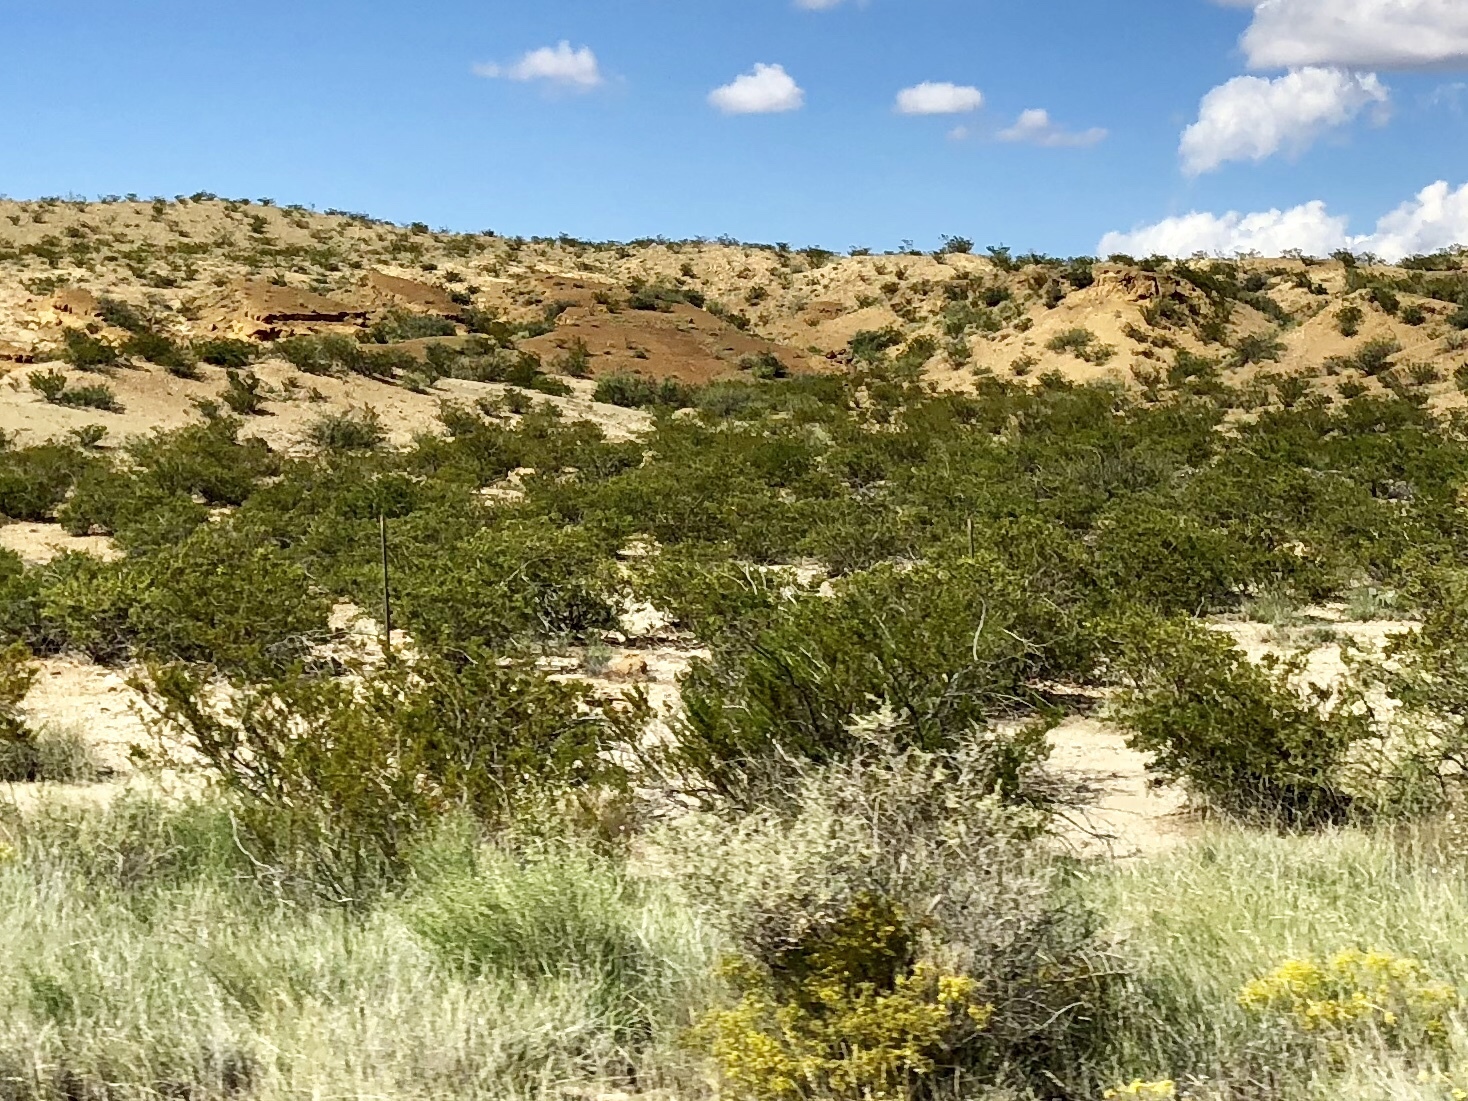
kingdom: Plantae
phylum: Tracheophyta
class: Magnoliopsida
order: Zygophyllales
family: Zygophyllaceae
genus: Larrea
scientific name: Larrea tridentata
